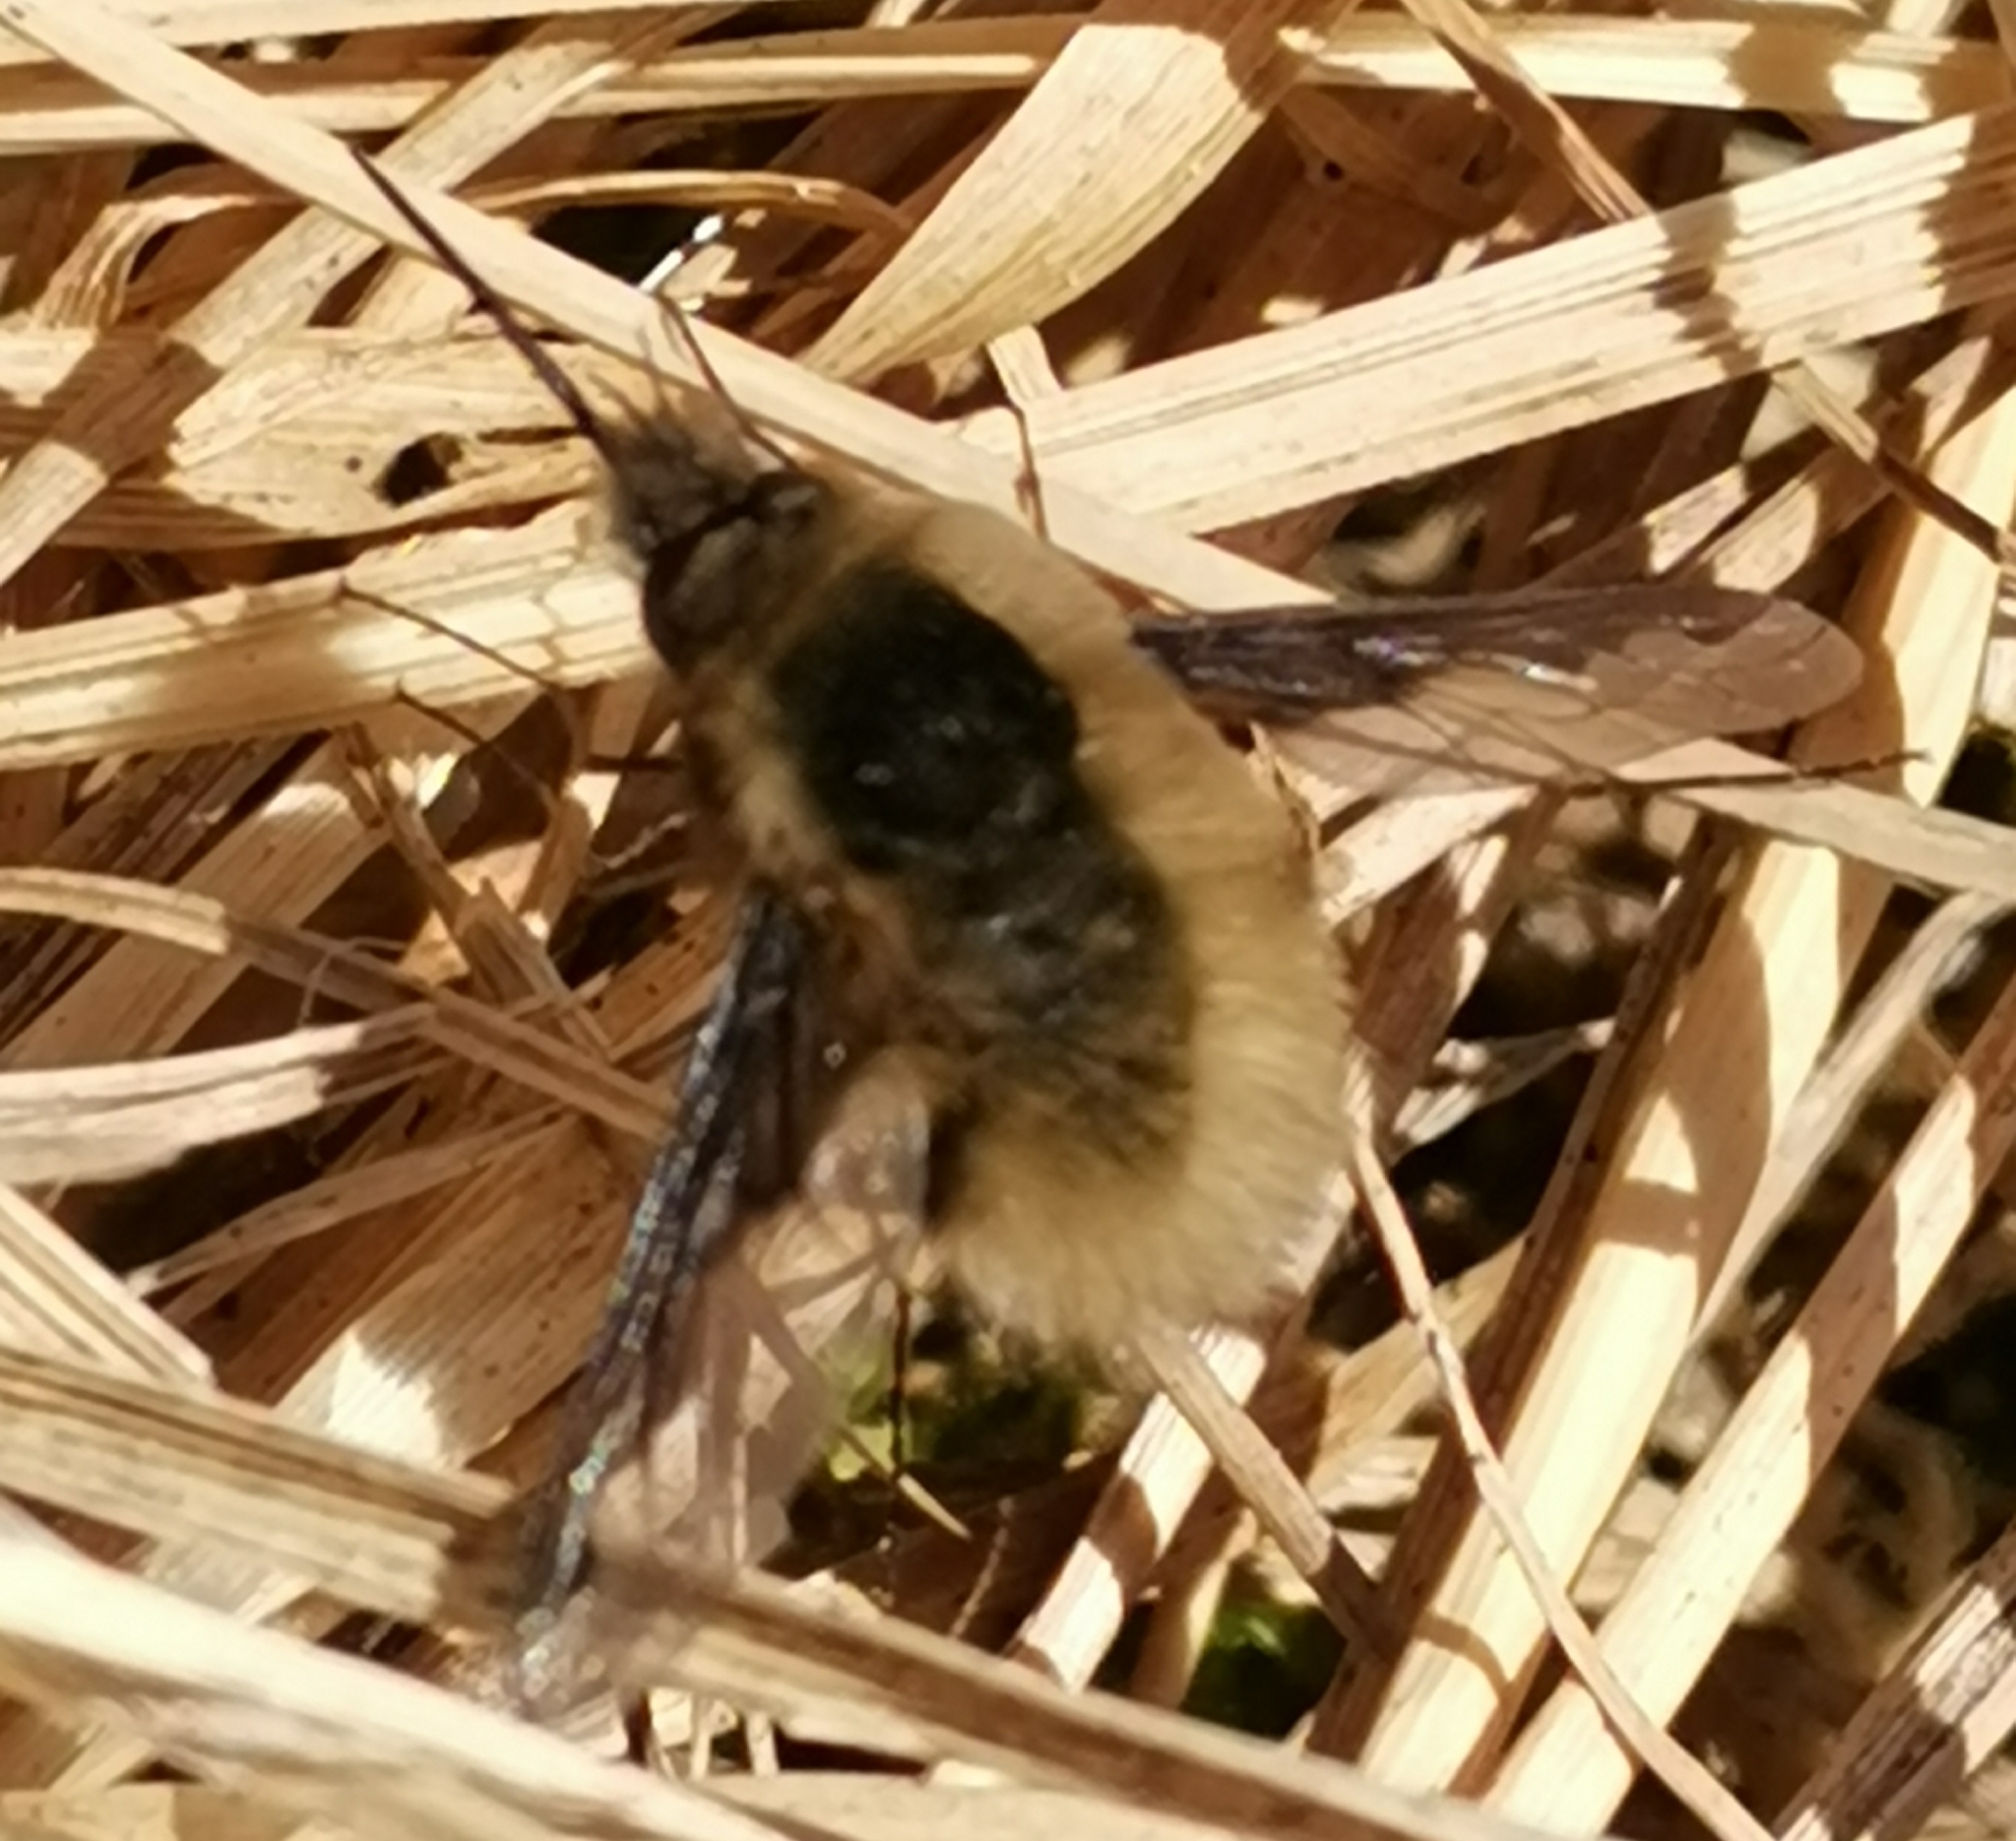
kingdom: Animalia
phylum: Arthropoda
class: Insecta
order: Diptera
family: Bombyliidae
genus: Bombylius
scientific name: Bombylius major
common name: Bee fly
